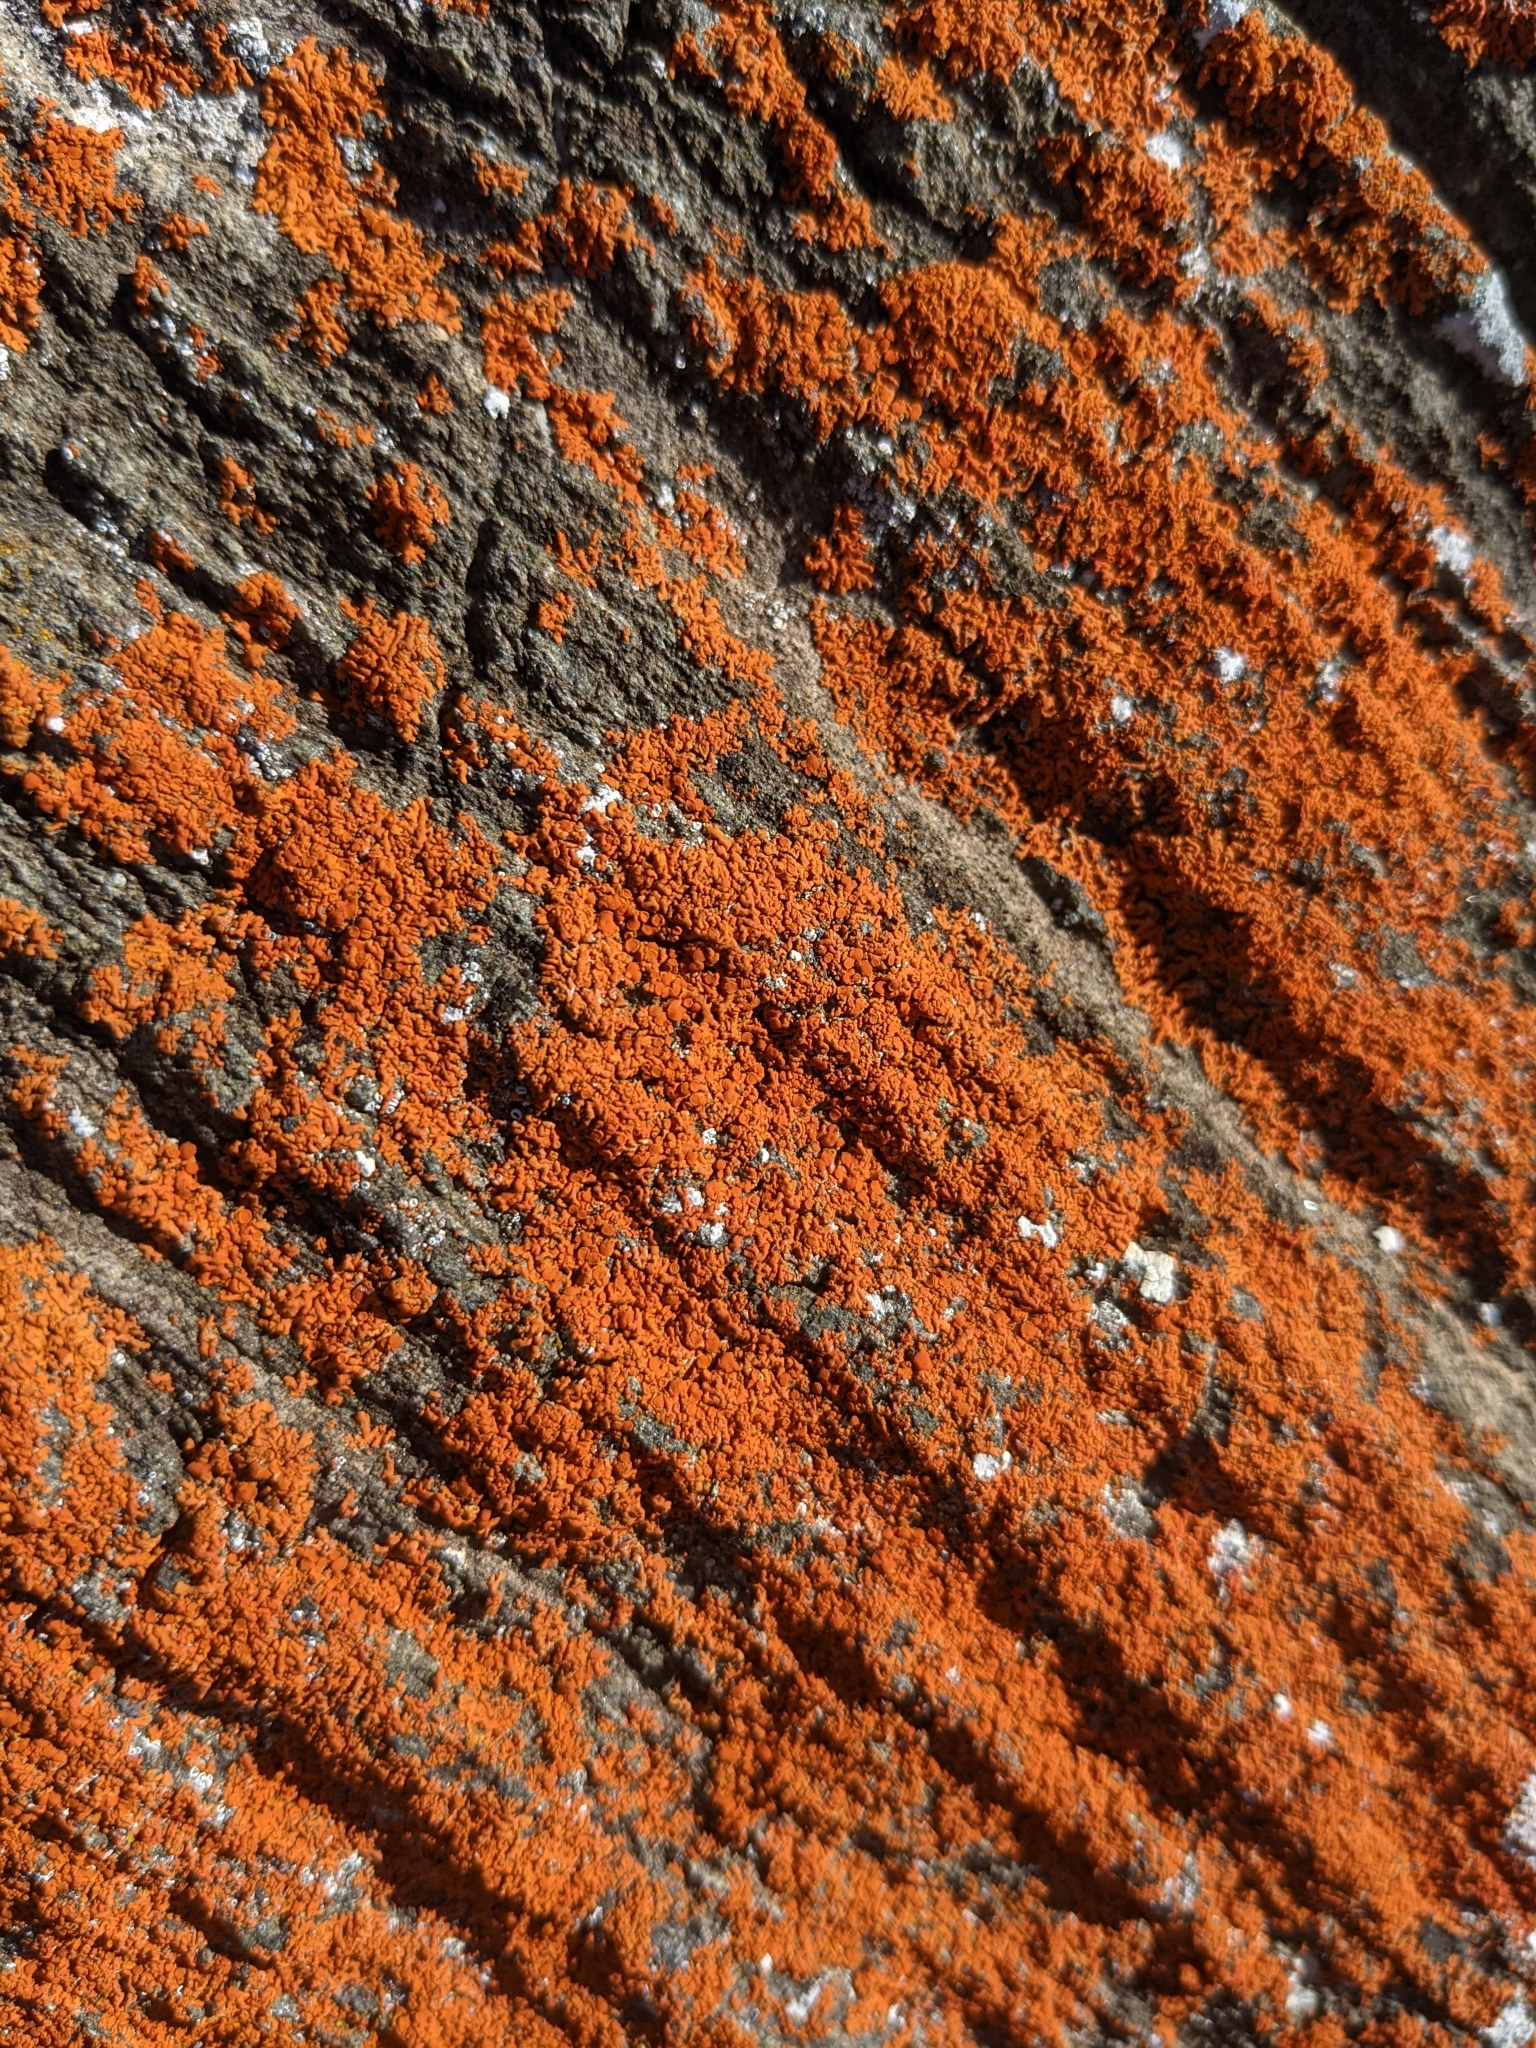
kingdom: Fungi
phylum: Ascomycota
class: Lecanoromycetes
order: Teloschistales
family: Teloschistaceae
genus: Xanthoria
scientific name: Xanthoria elegans
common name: Elegant sunburst lichen
